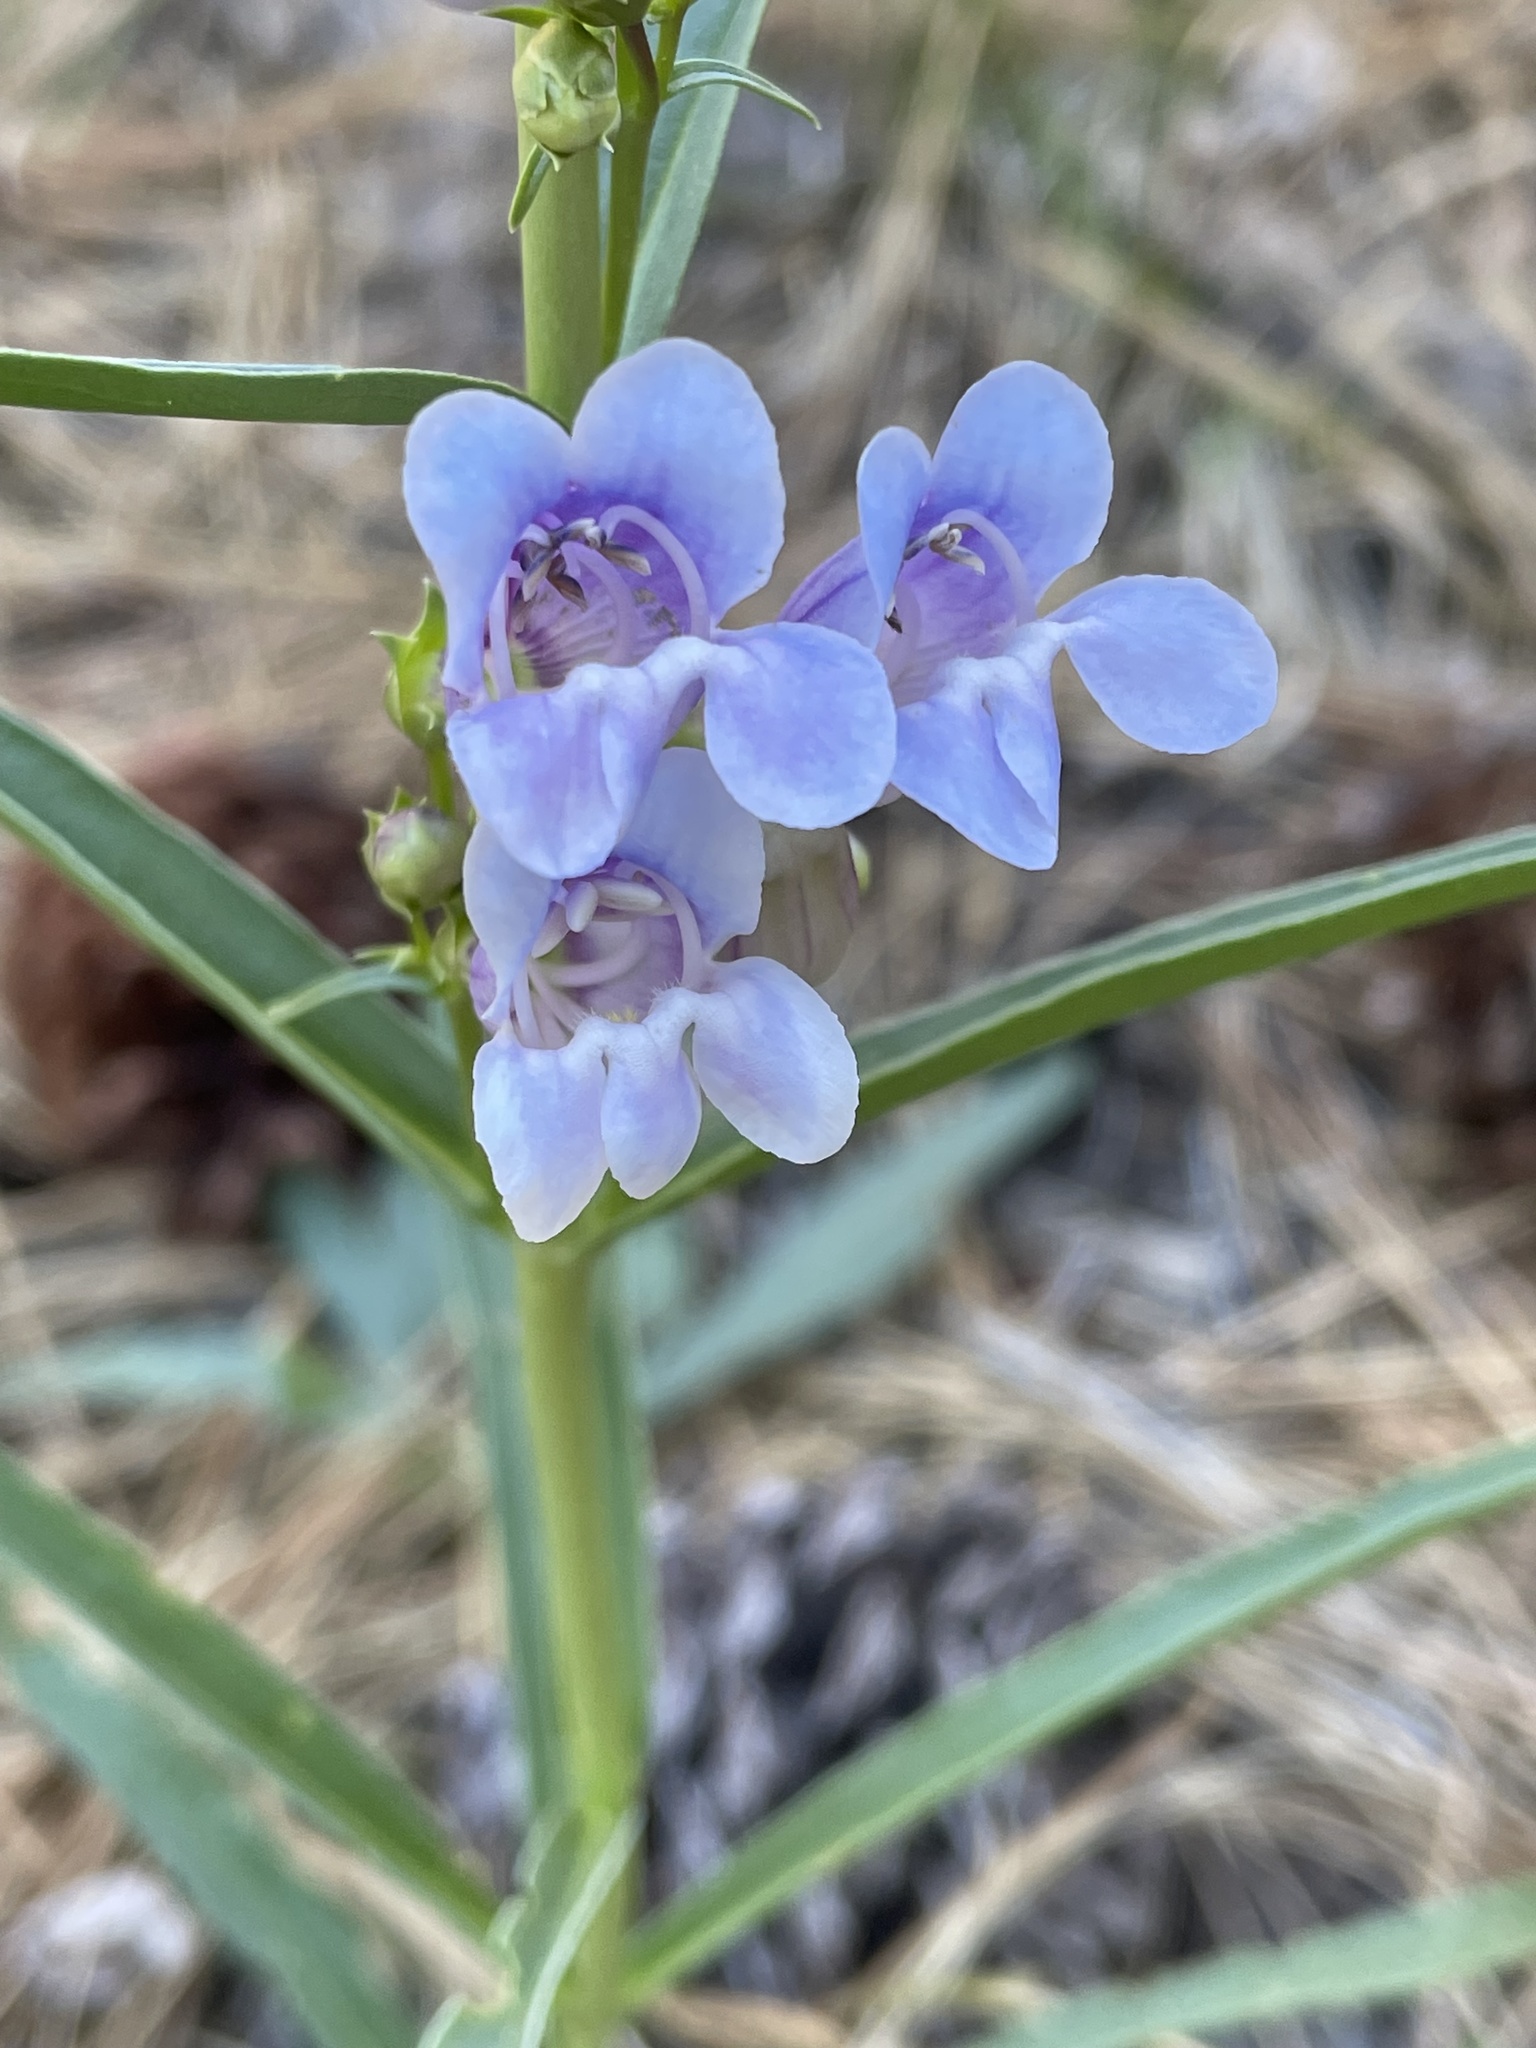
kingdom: Plantae
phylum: Tracheophyta
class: Magnoliopsida
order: Lamiales
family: Plantaginaceae
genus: Penstemon
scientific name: Penstemon speciosus
